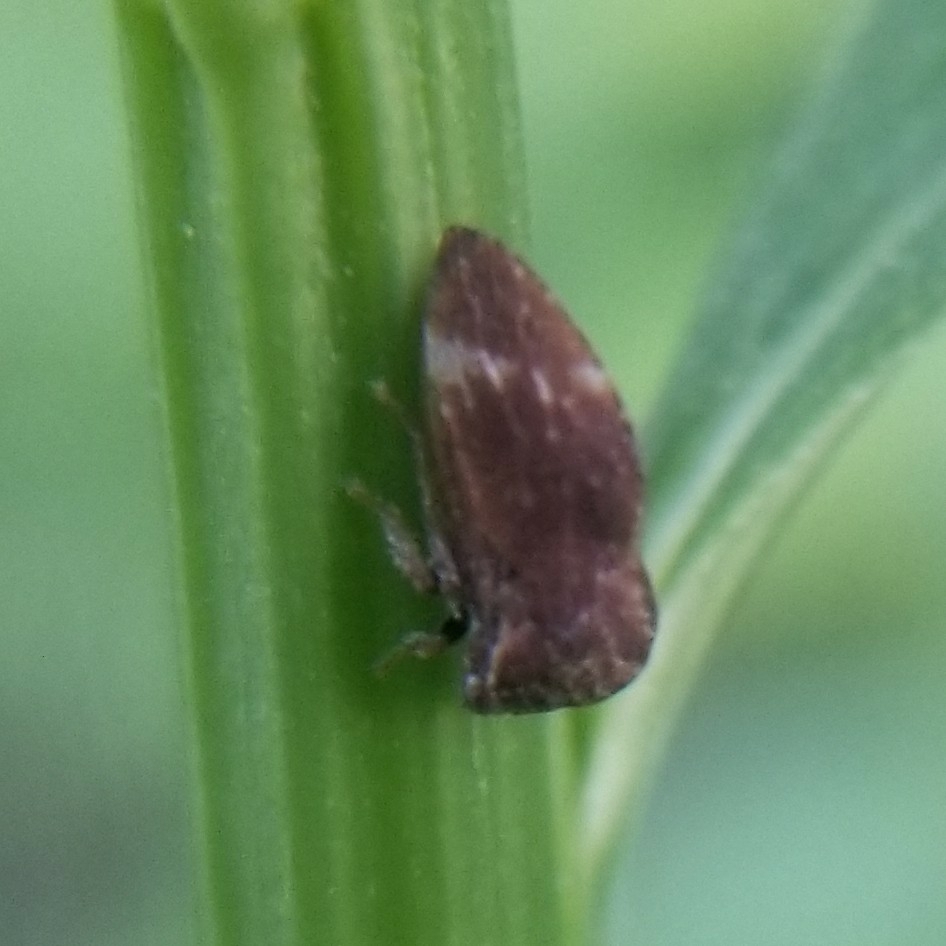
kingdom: Animalia
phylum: Arthropoda
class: Insecta
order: Hemiptera
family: Membracidae
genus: Publilia
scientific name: Publilia concava
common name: Aster treehopper
